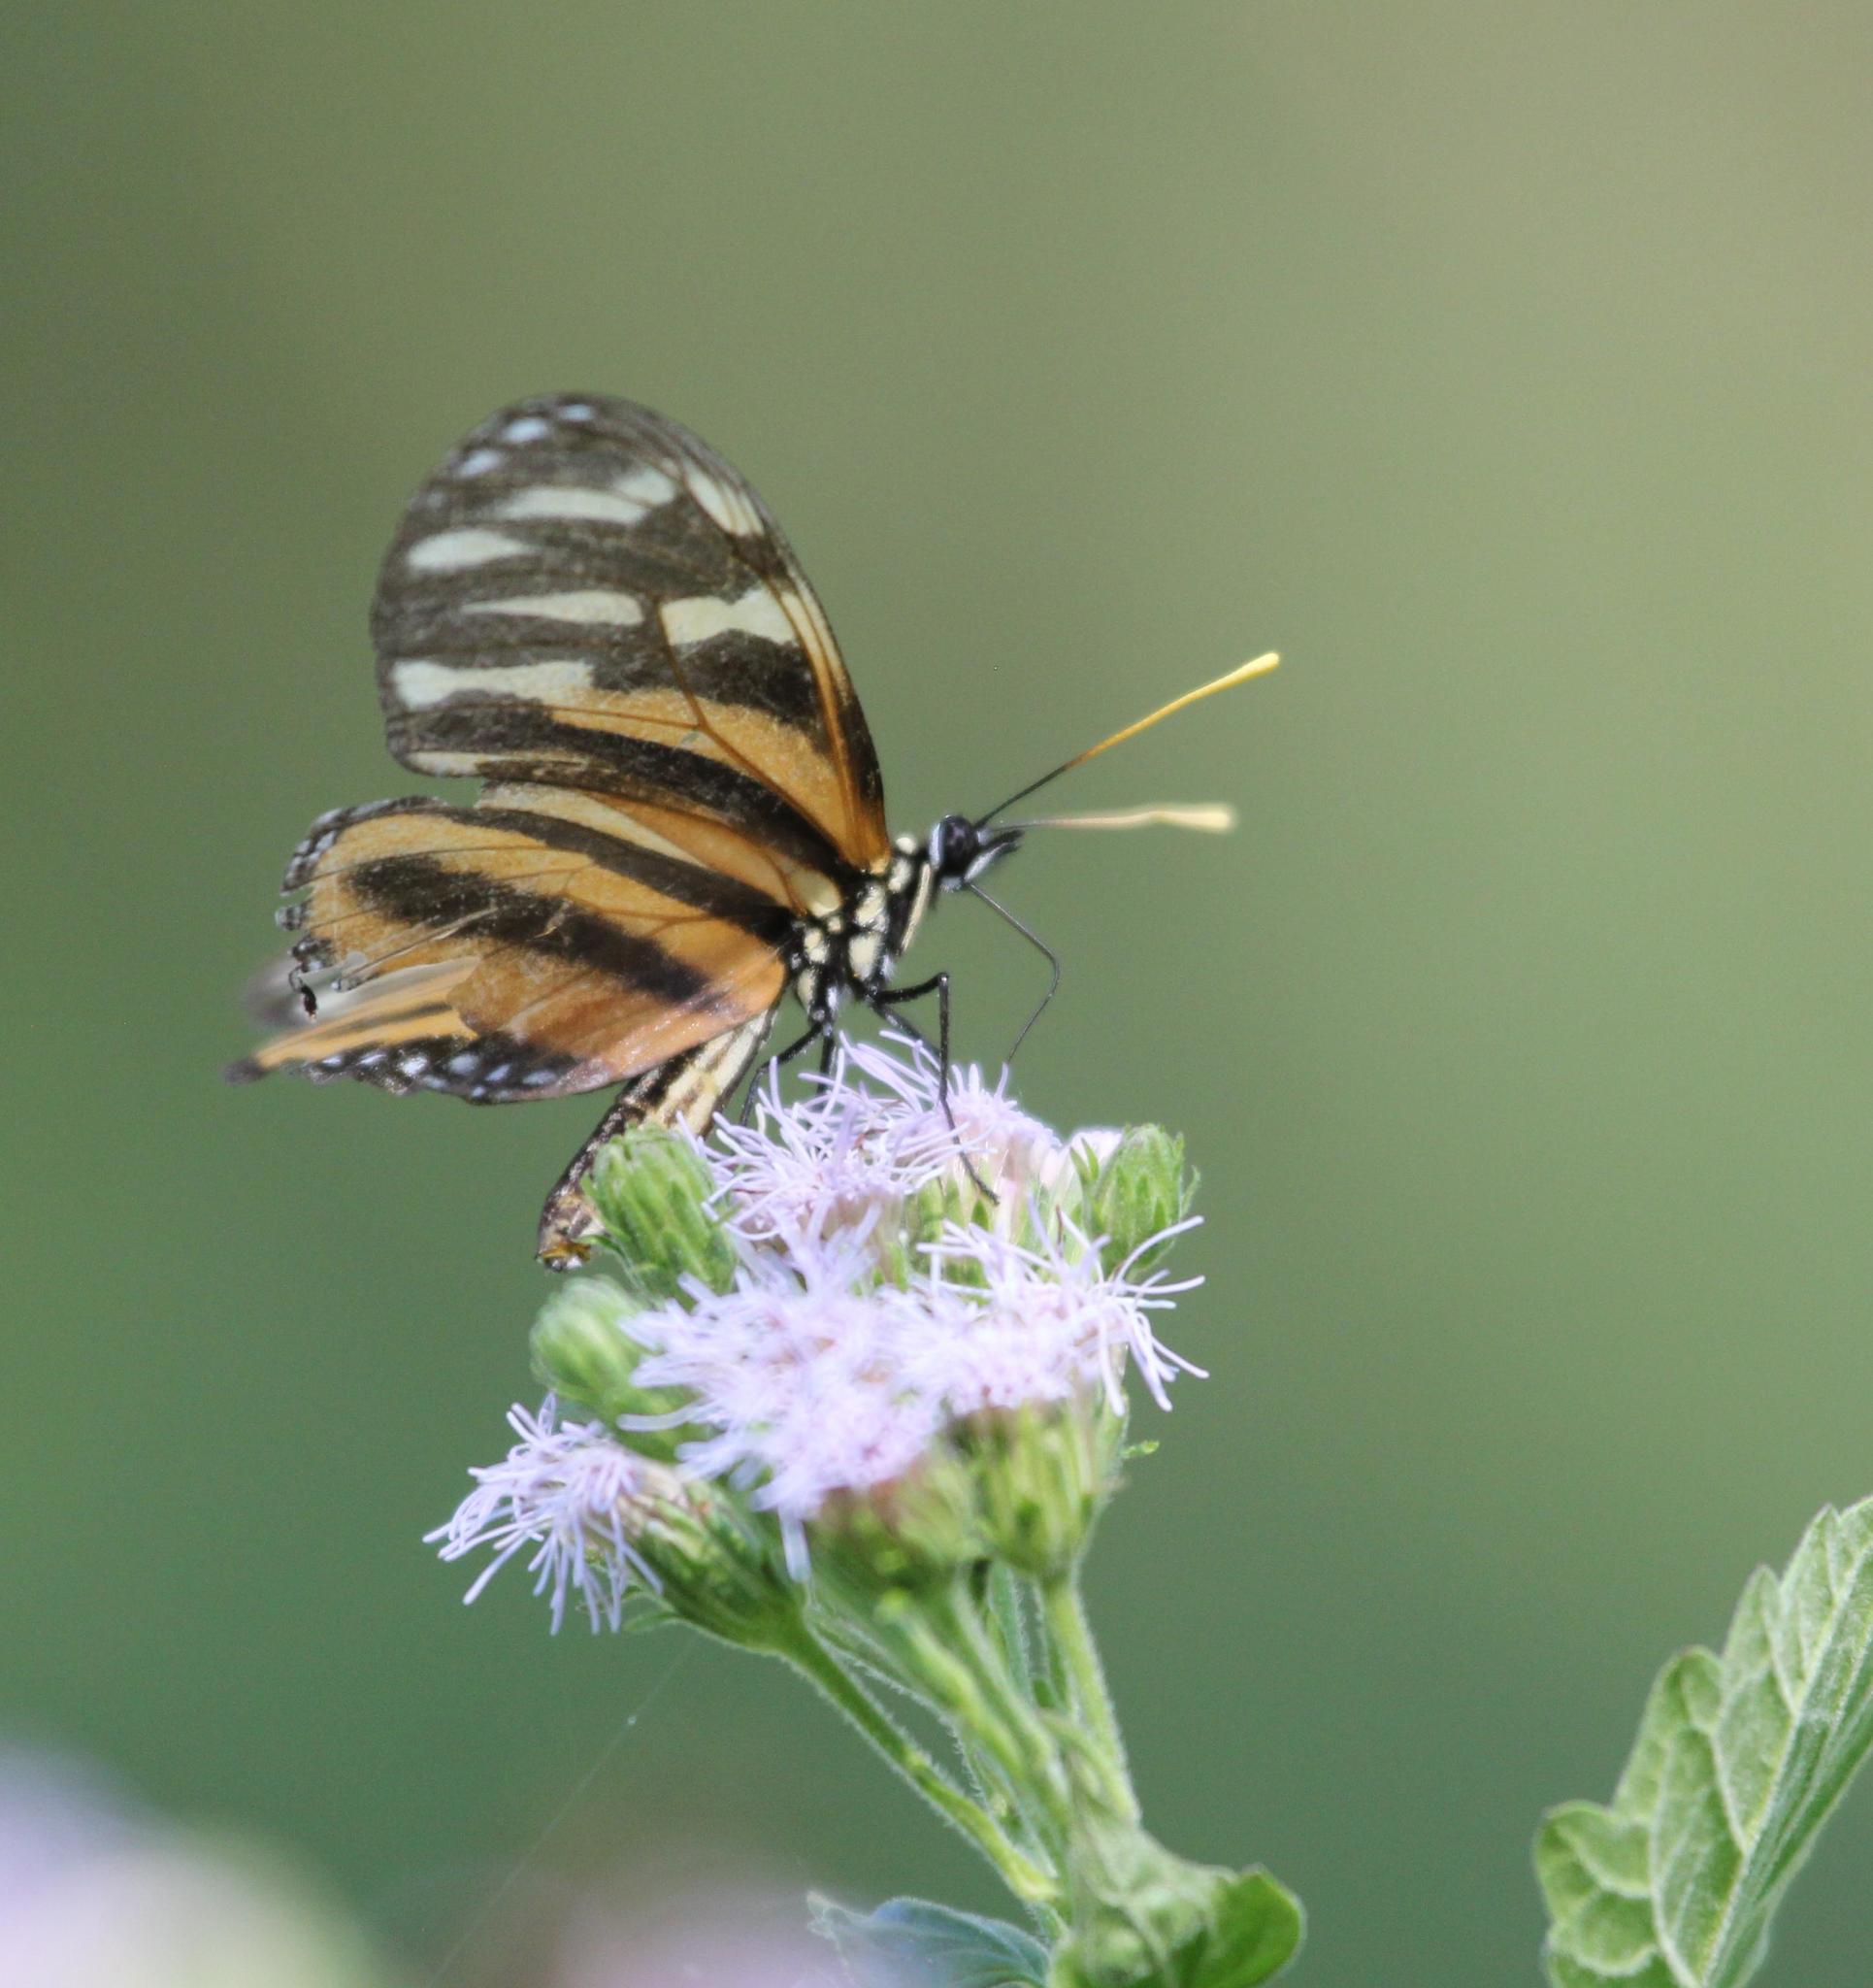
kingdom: Animalia
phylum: Arthropoda
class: Insecta
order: Lepidoptera
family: Nymphalidae
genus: Eueides
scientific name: Eueides isabella
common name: Isabella's longwing
